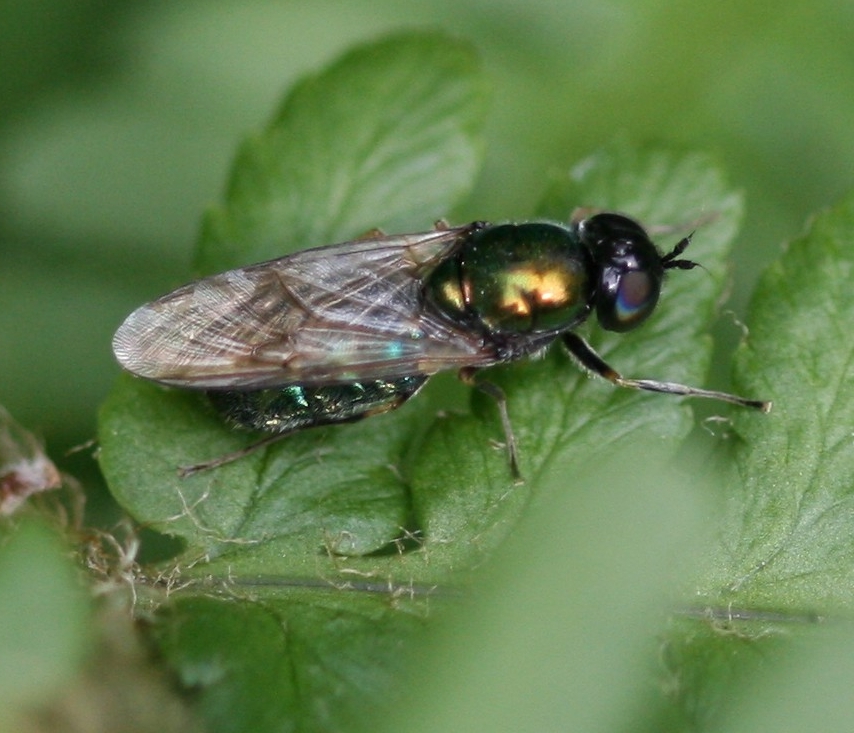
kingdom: Animalia
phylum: Arthropoda
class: Insecta
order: Diptera
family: Stratiomyidae
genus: Chloromyia
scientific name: Chloromyia formosa
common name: Soldier fly
